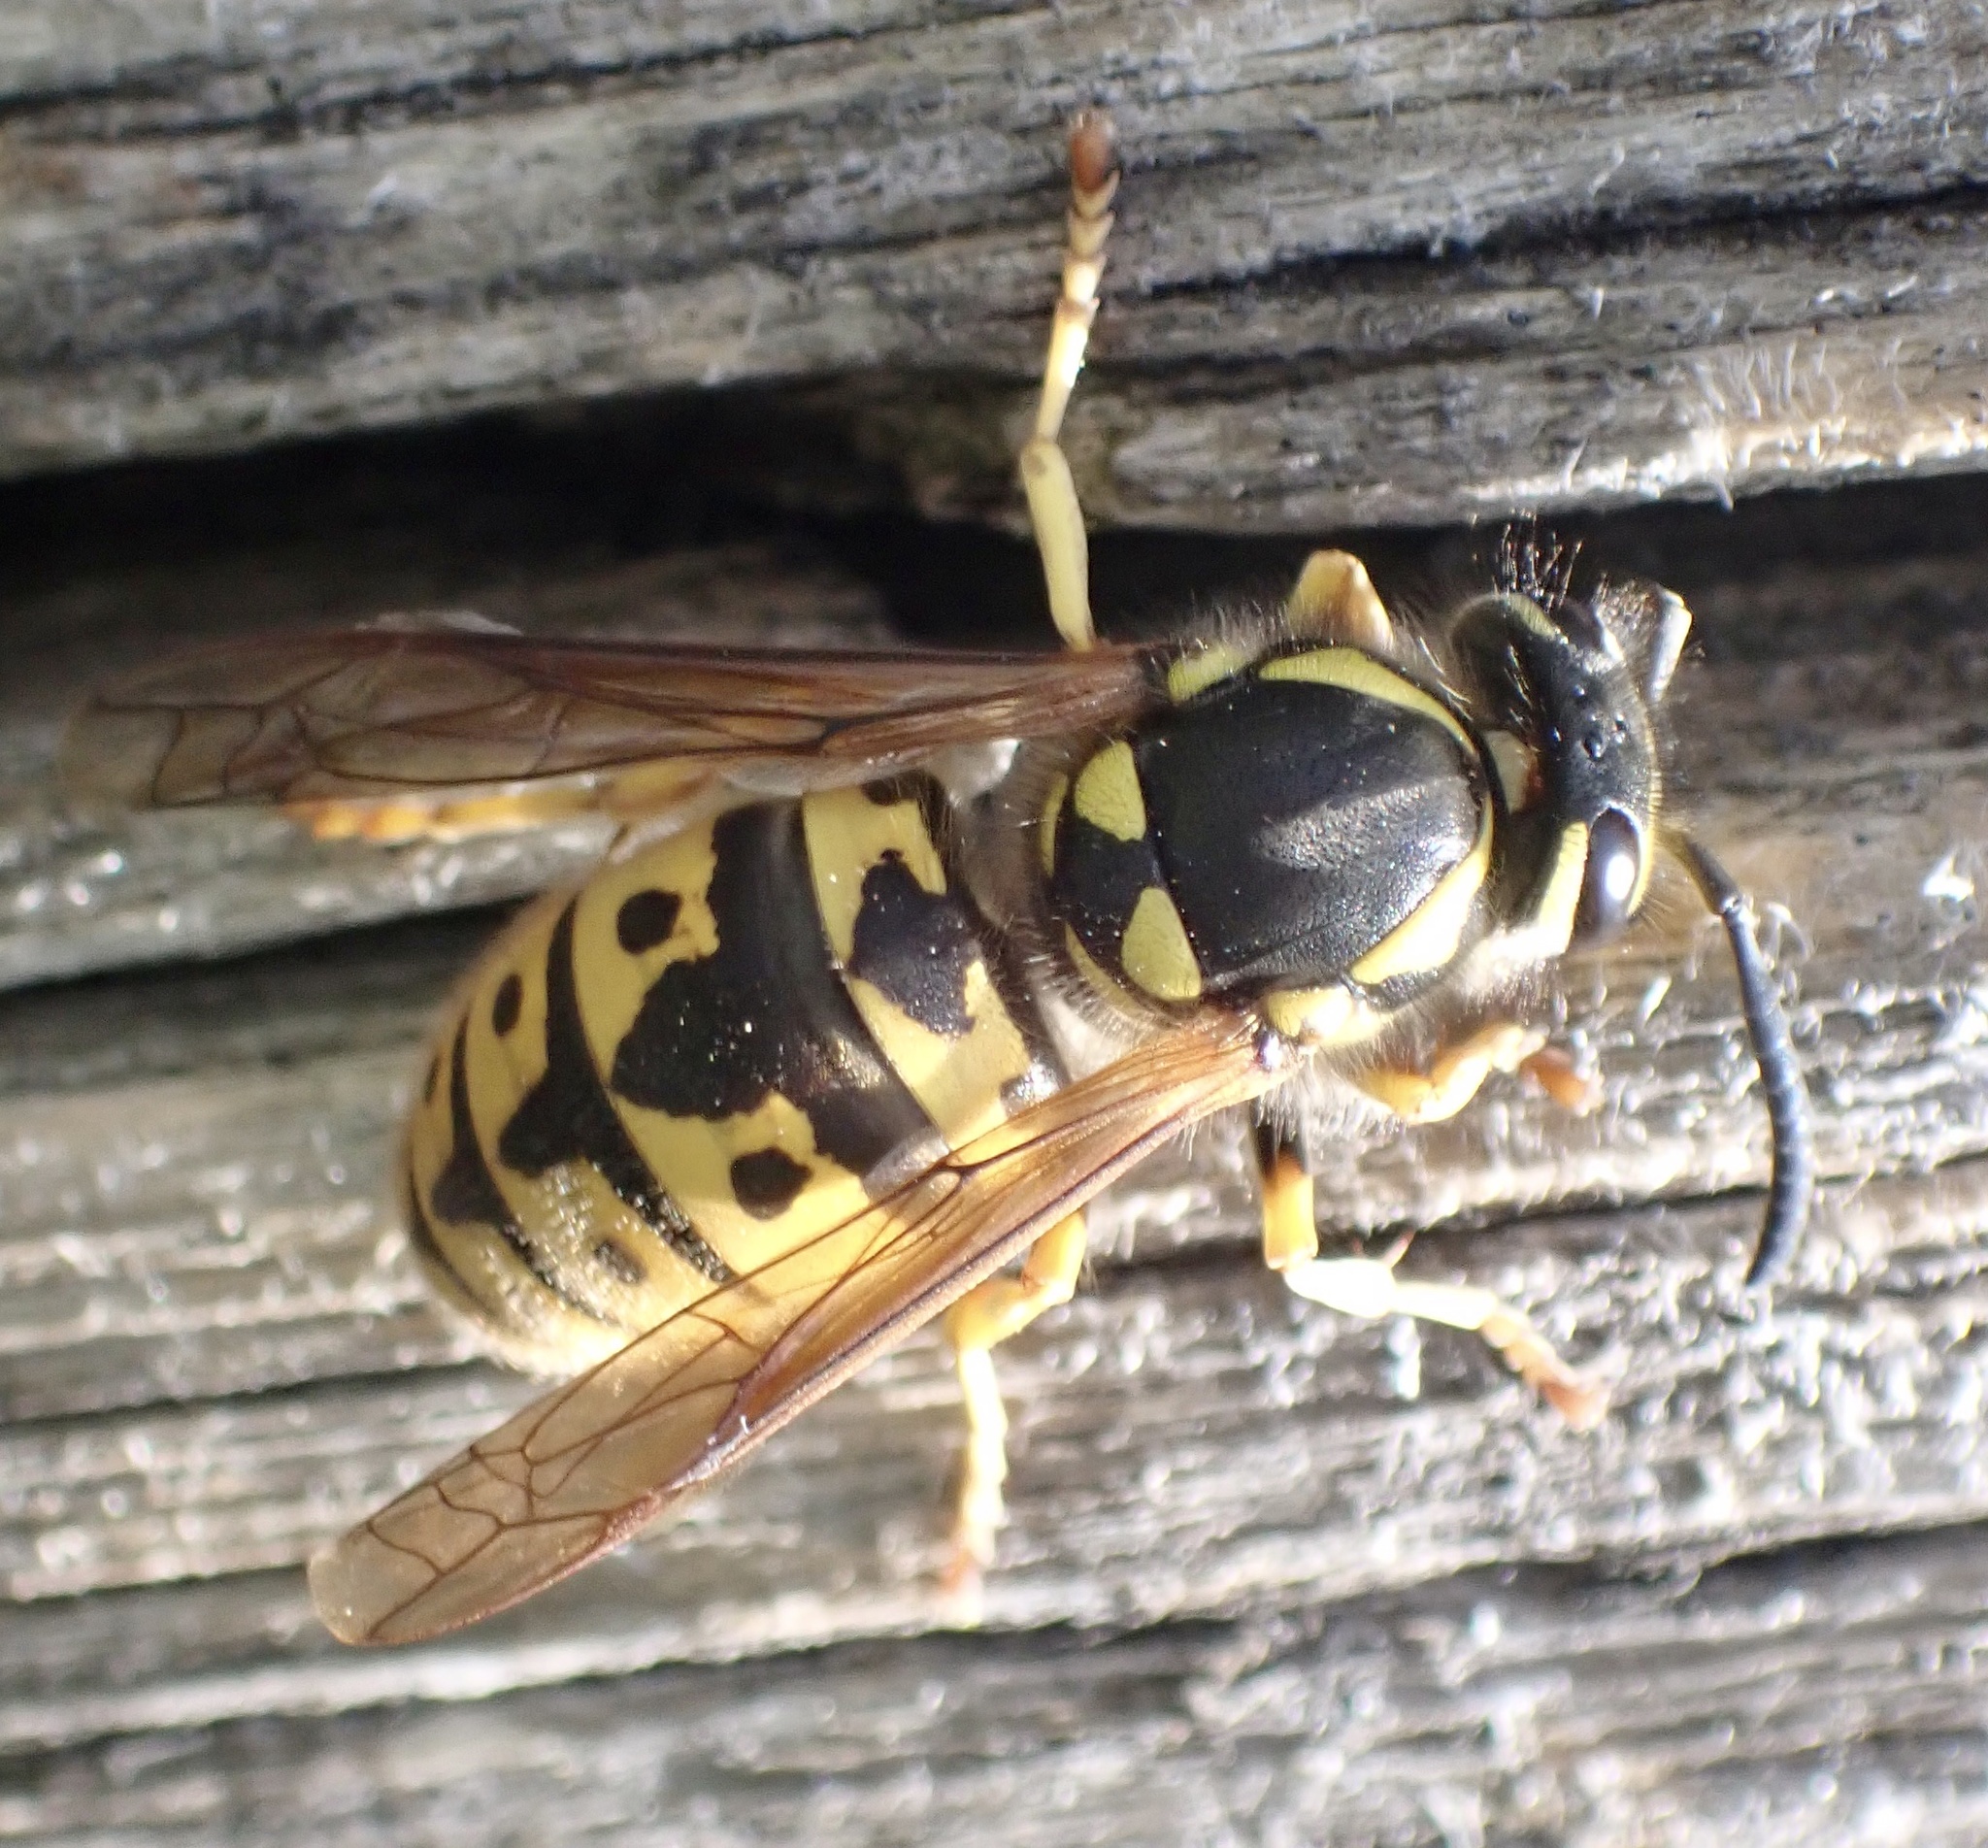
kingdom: Animalia
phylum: Arthropoda
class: Insecta
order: Hymenoptera
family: Vespidae
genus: Vespula
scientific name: Vespula germanica
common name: German wasp
